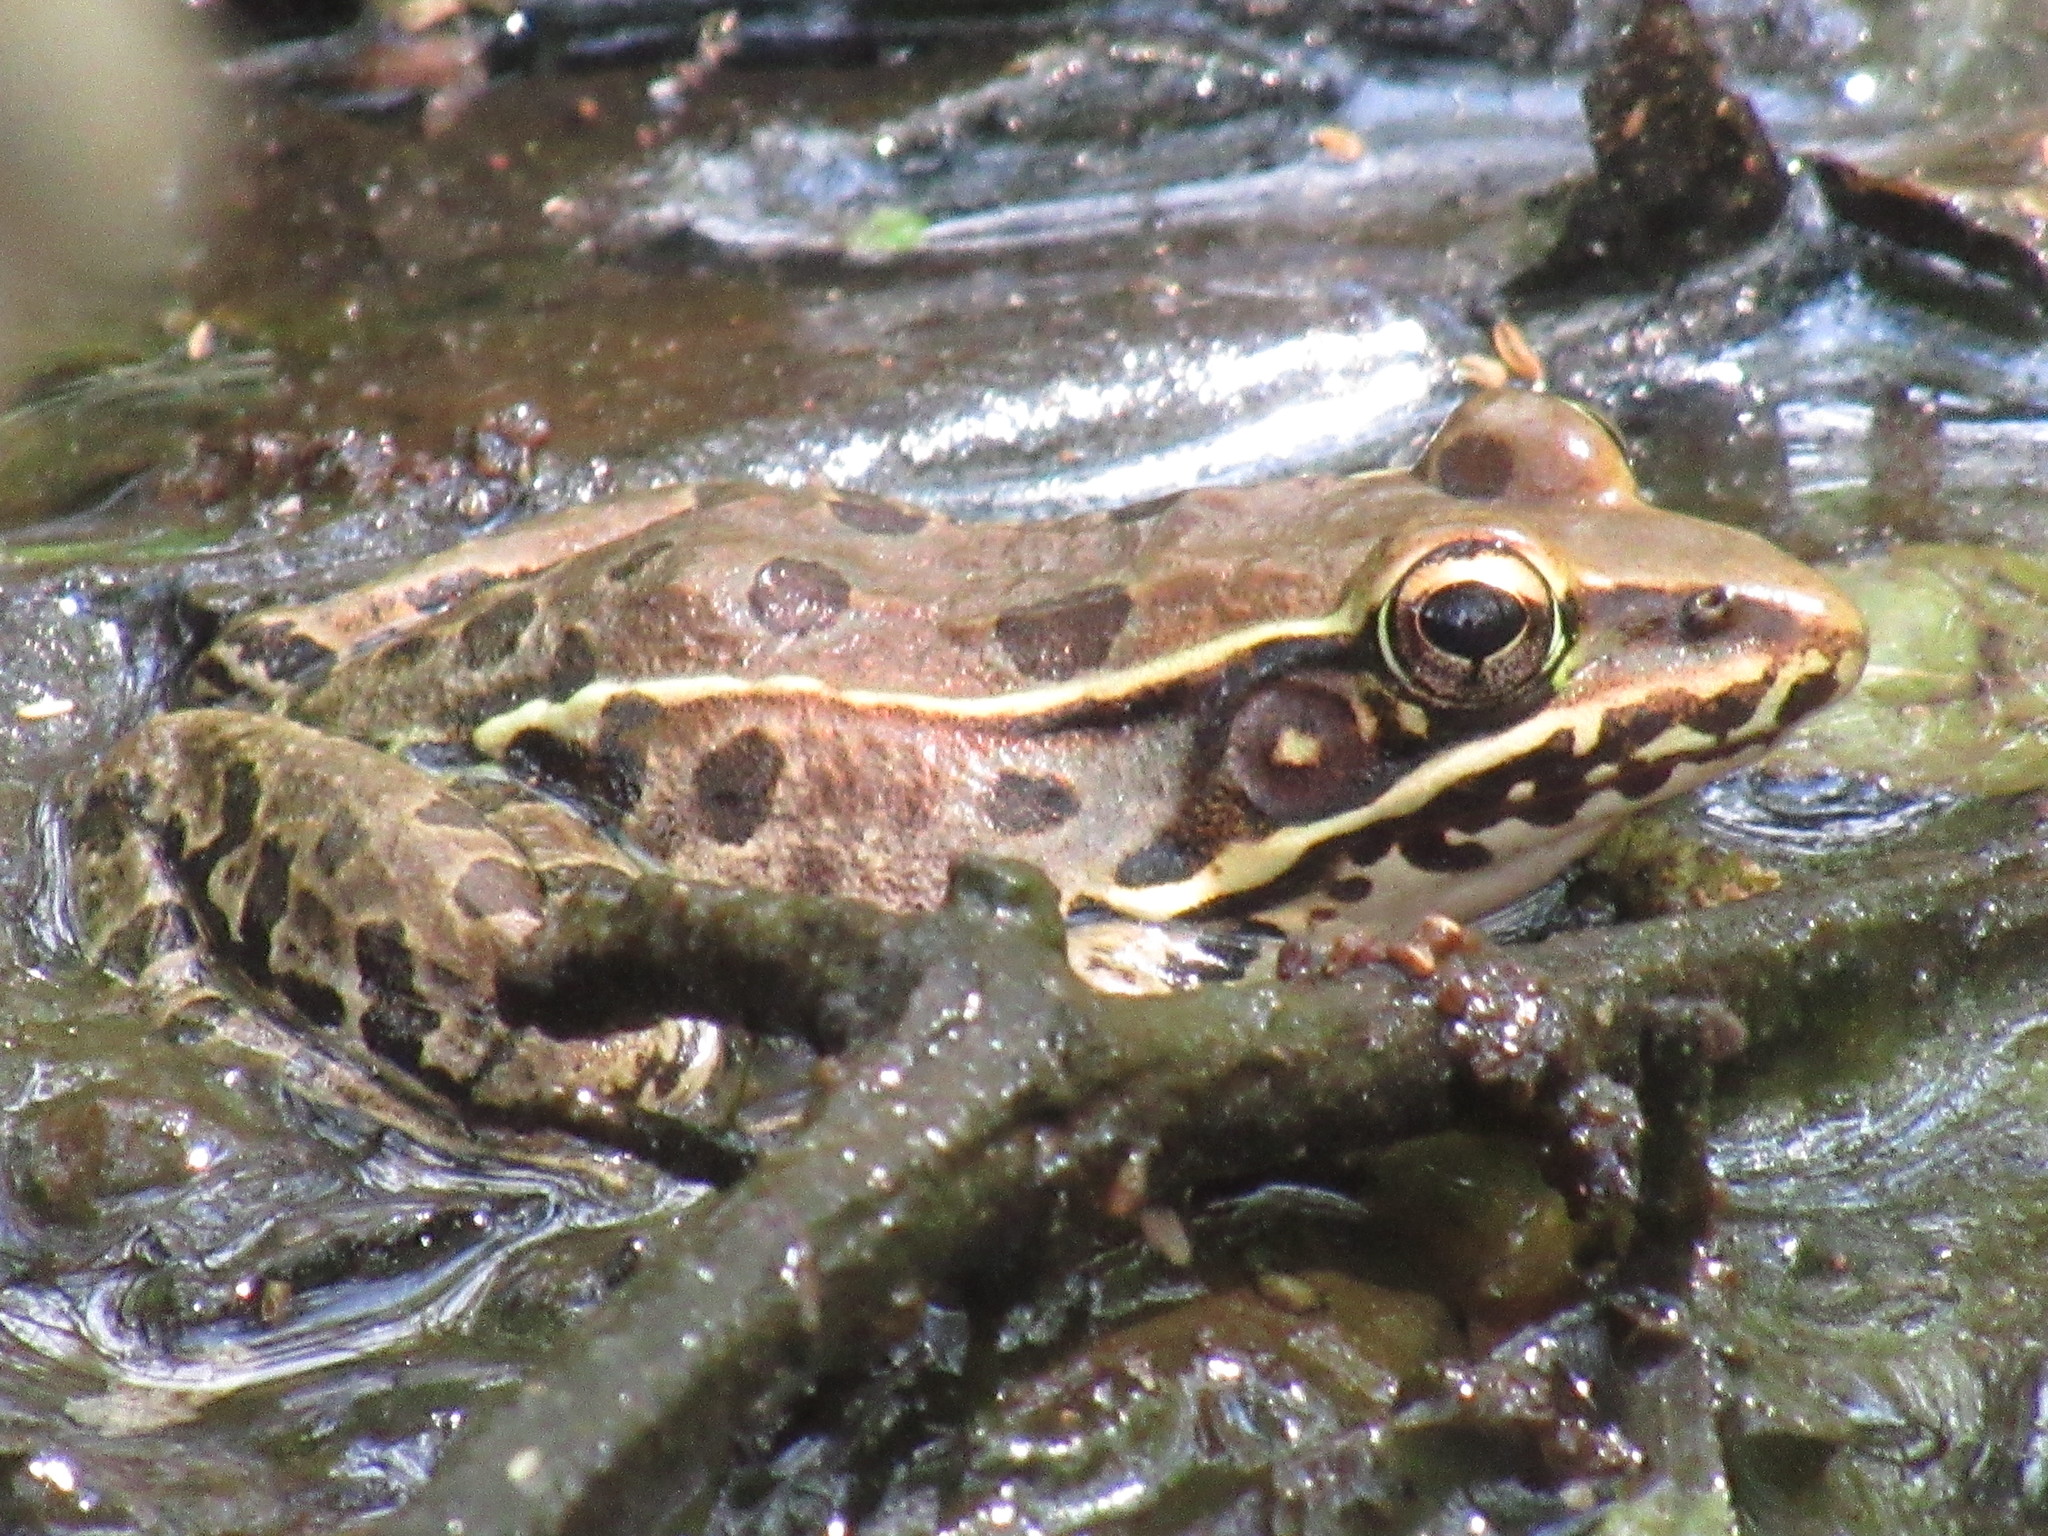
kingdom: Animalia
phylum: Chordata
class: Amphibia
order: Anura
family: Ranidae
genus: Lithobates
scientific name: Lithobates sphenocephalus
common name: Southern leopard frog
